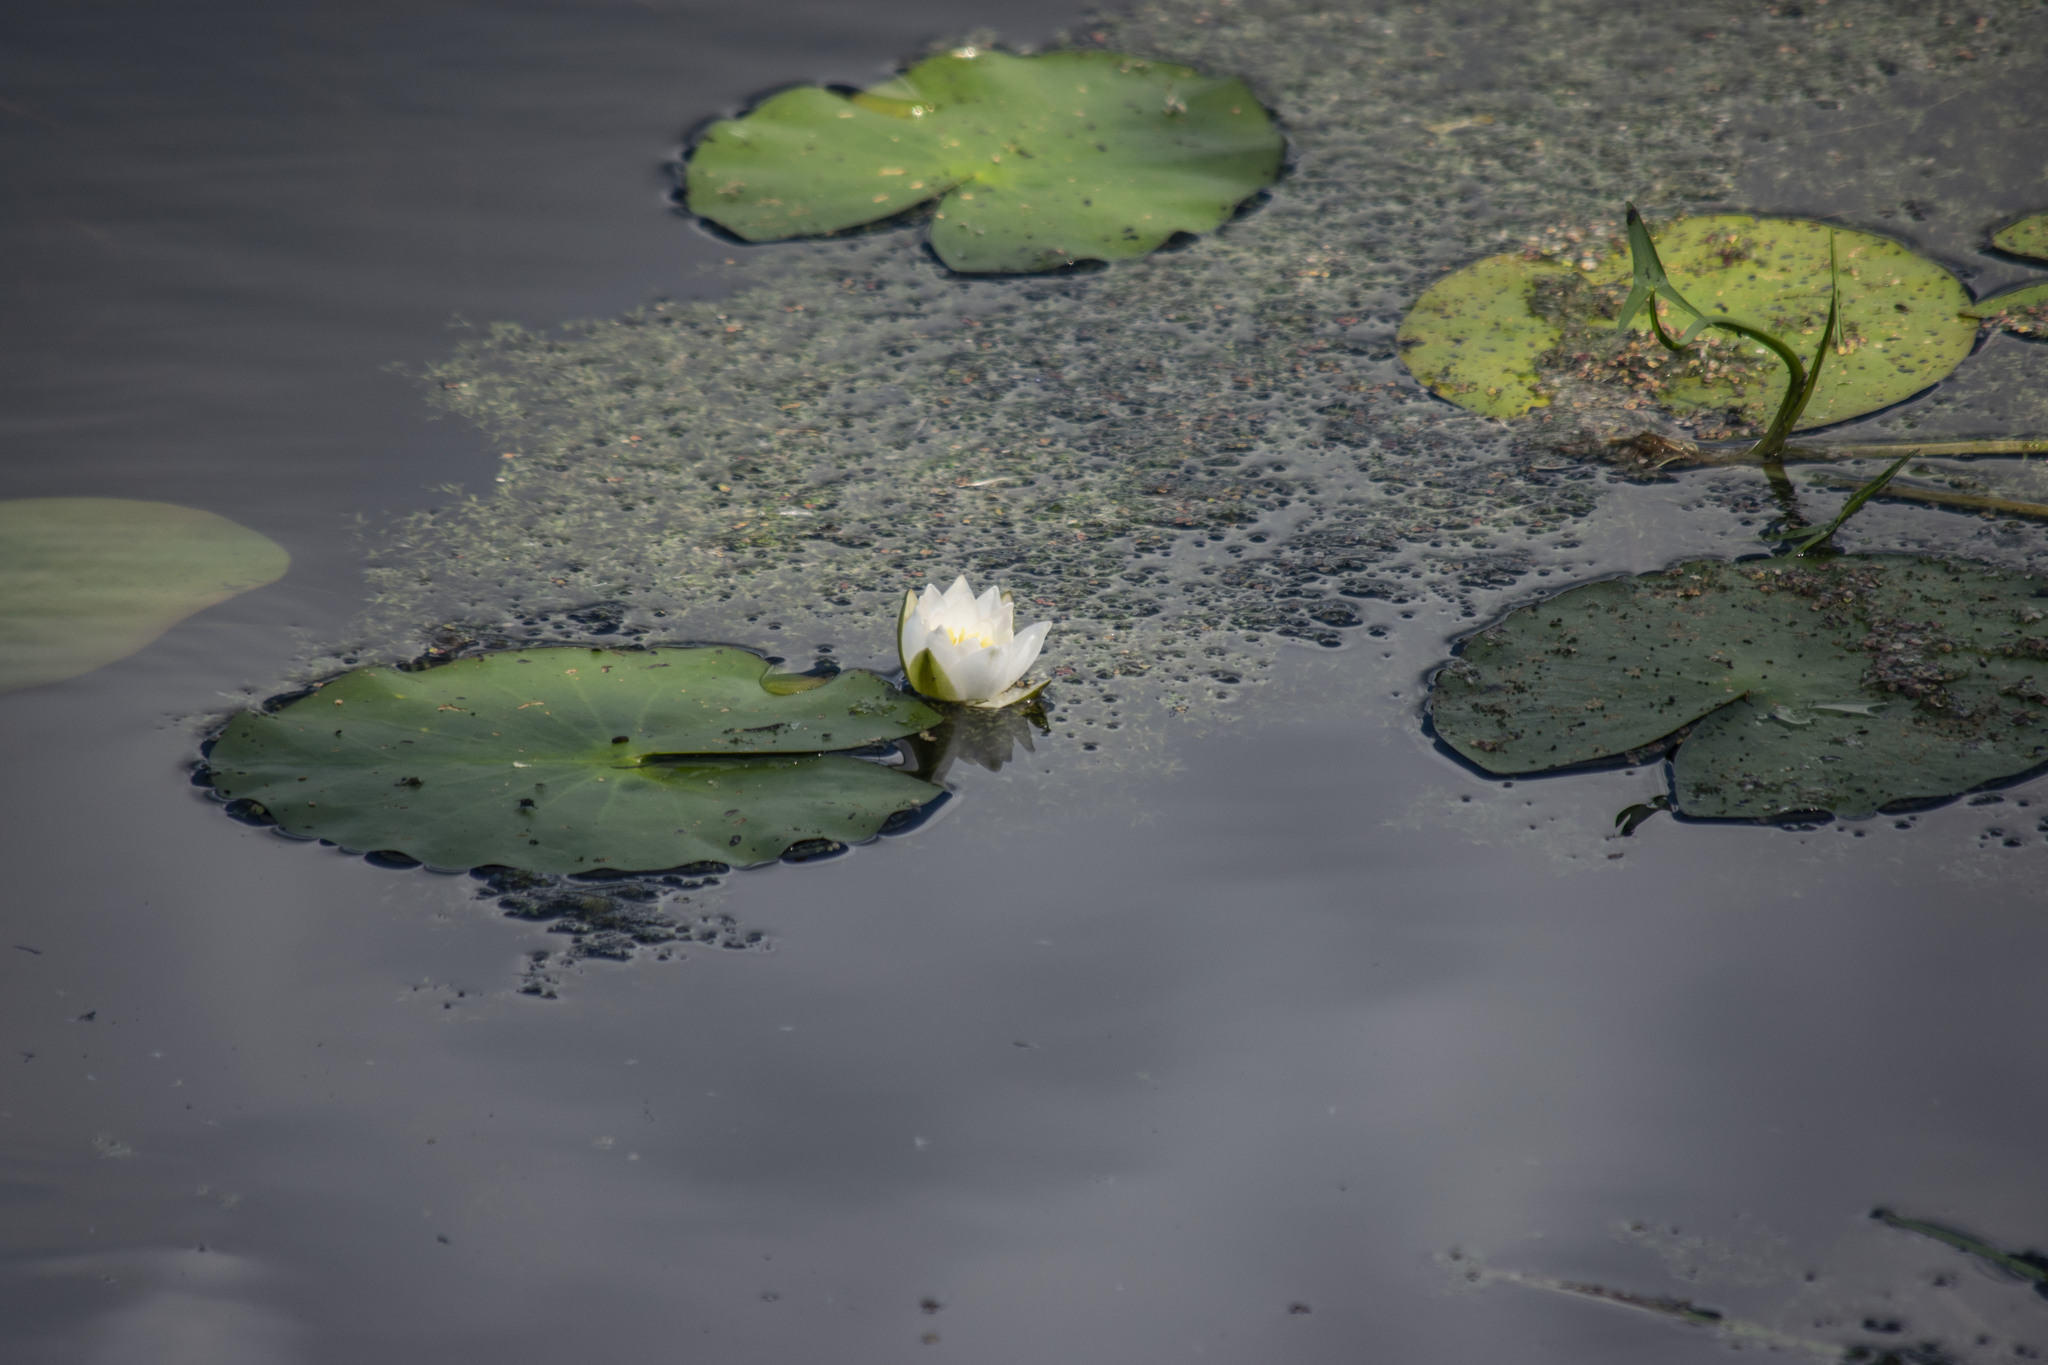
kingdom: Plantae
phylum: Tracheophyta
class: Magnoliopsida
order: Nymphaeales
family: Nymphaeaceae
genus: Nymphaea
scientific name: Nymphaea candida
